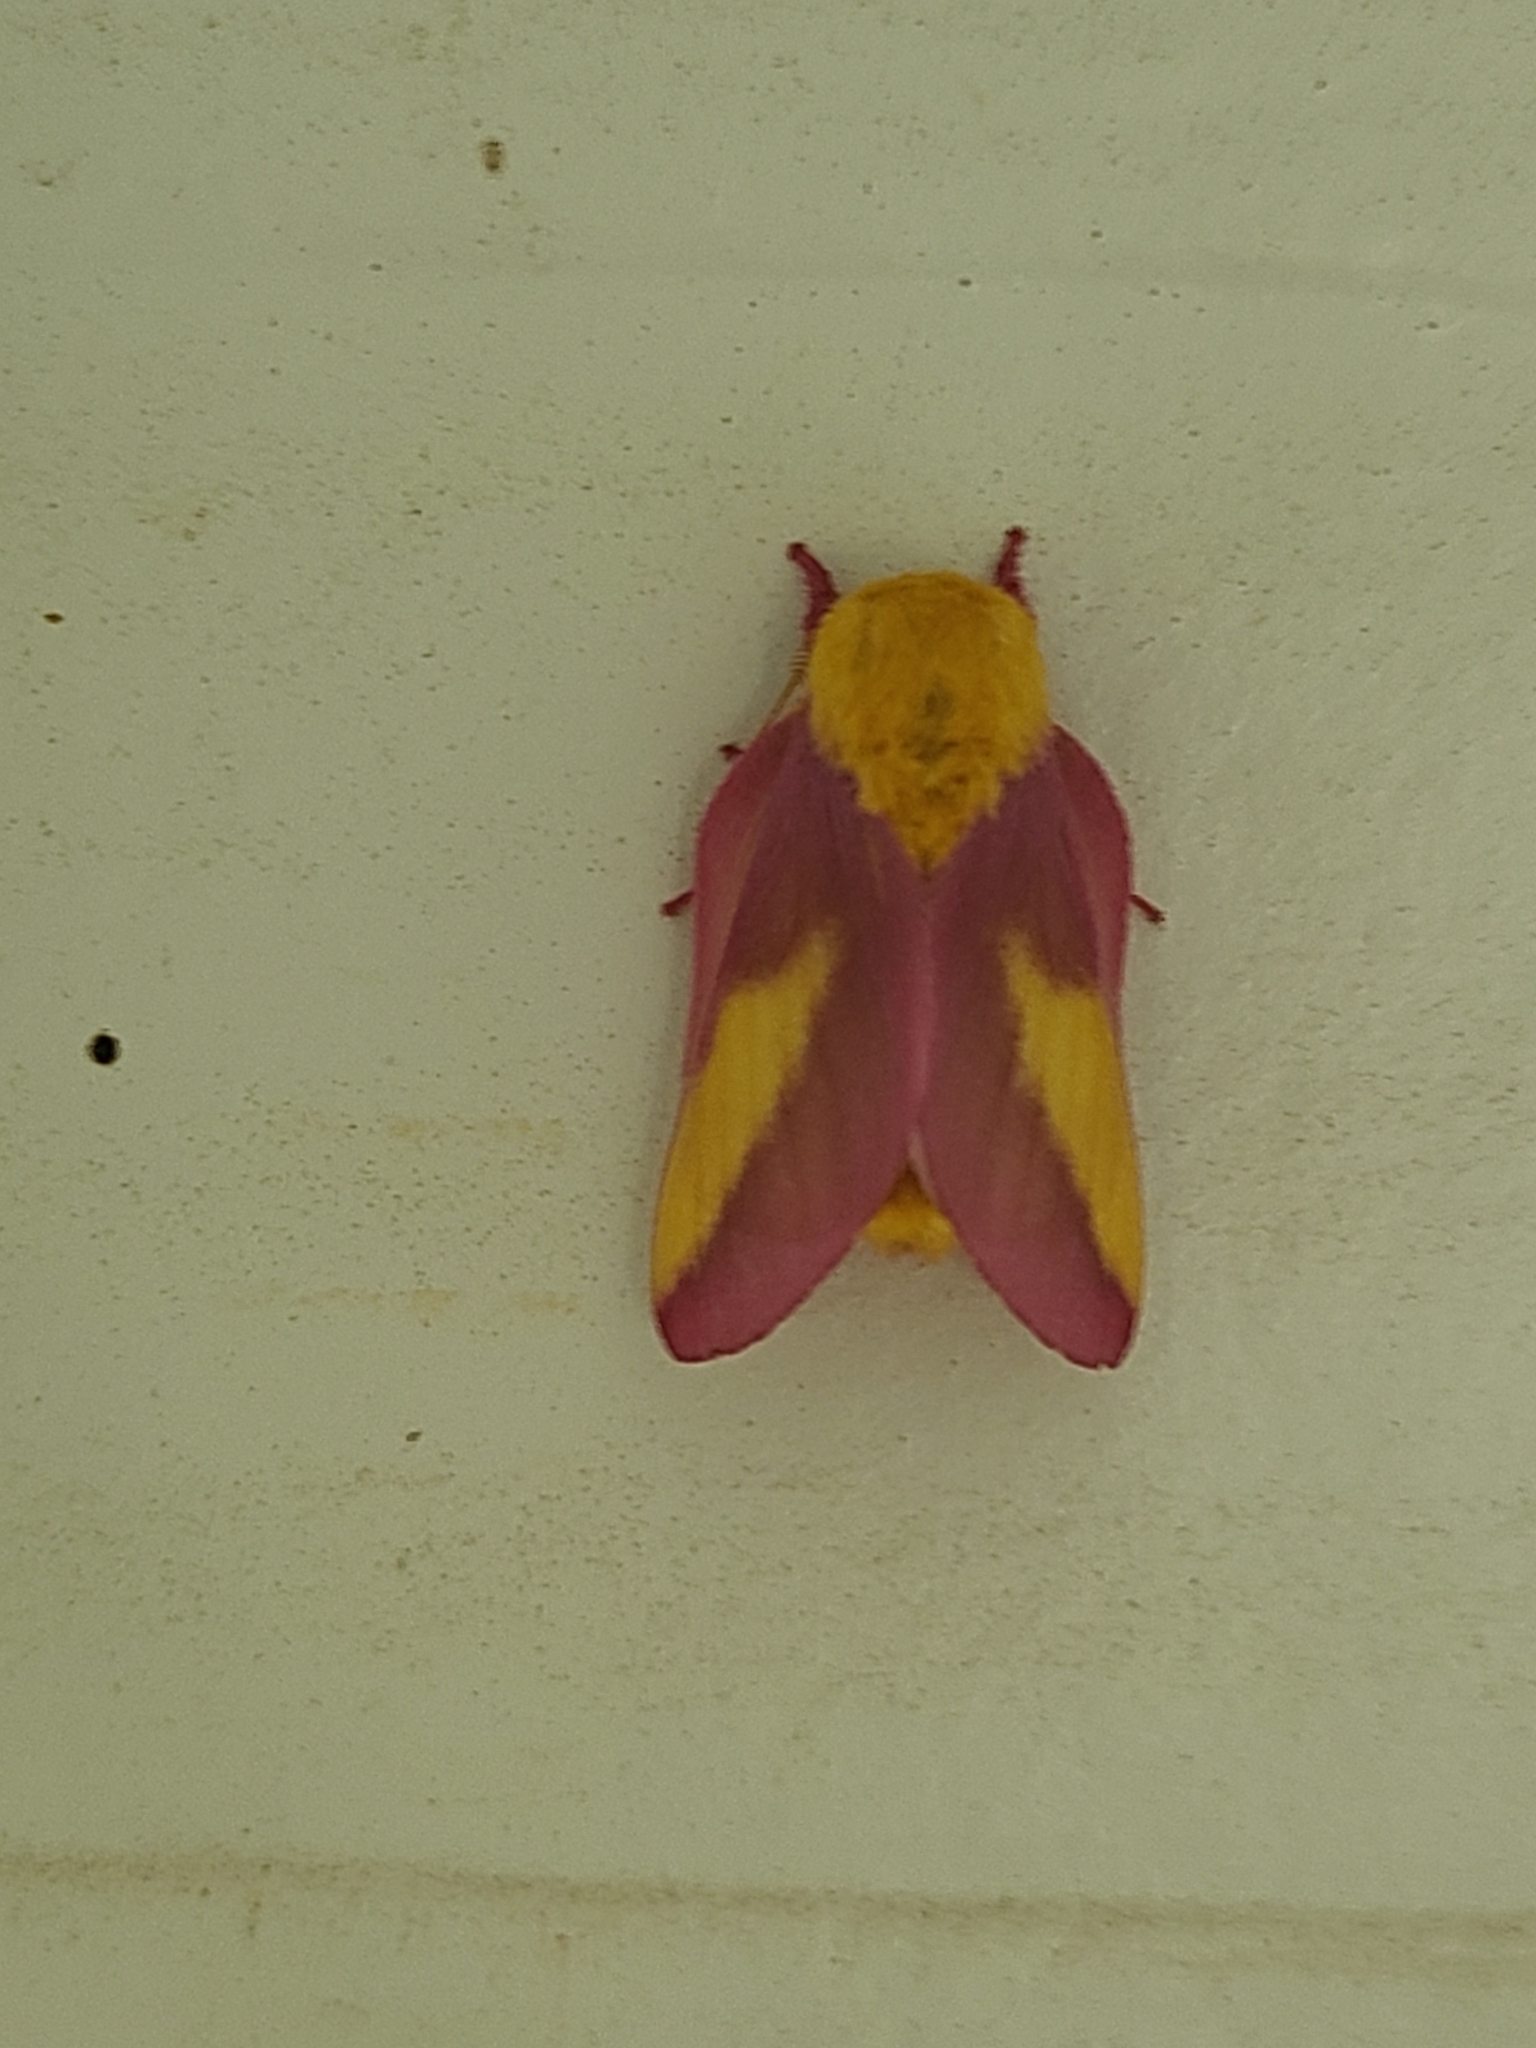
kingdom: Animalia
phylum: Arthropoda
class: Insecta
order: Lepidoptera
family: Saturniidae
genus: Dryocampa
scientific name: Dryocampa rubicunda
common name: Rosy maple moth
